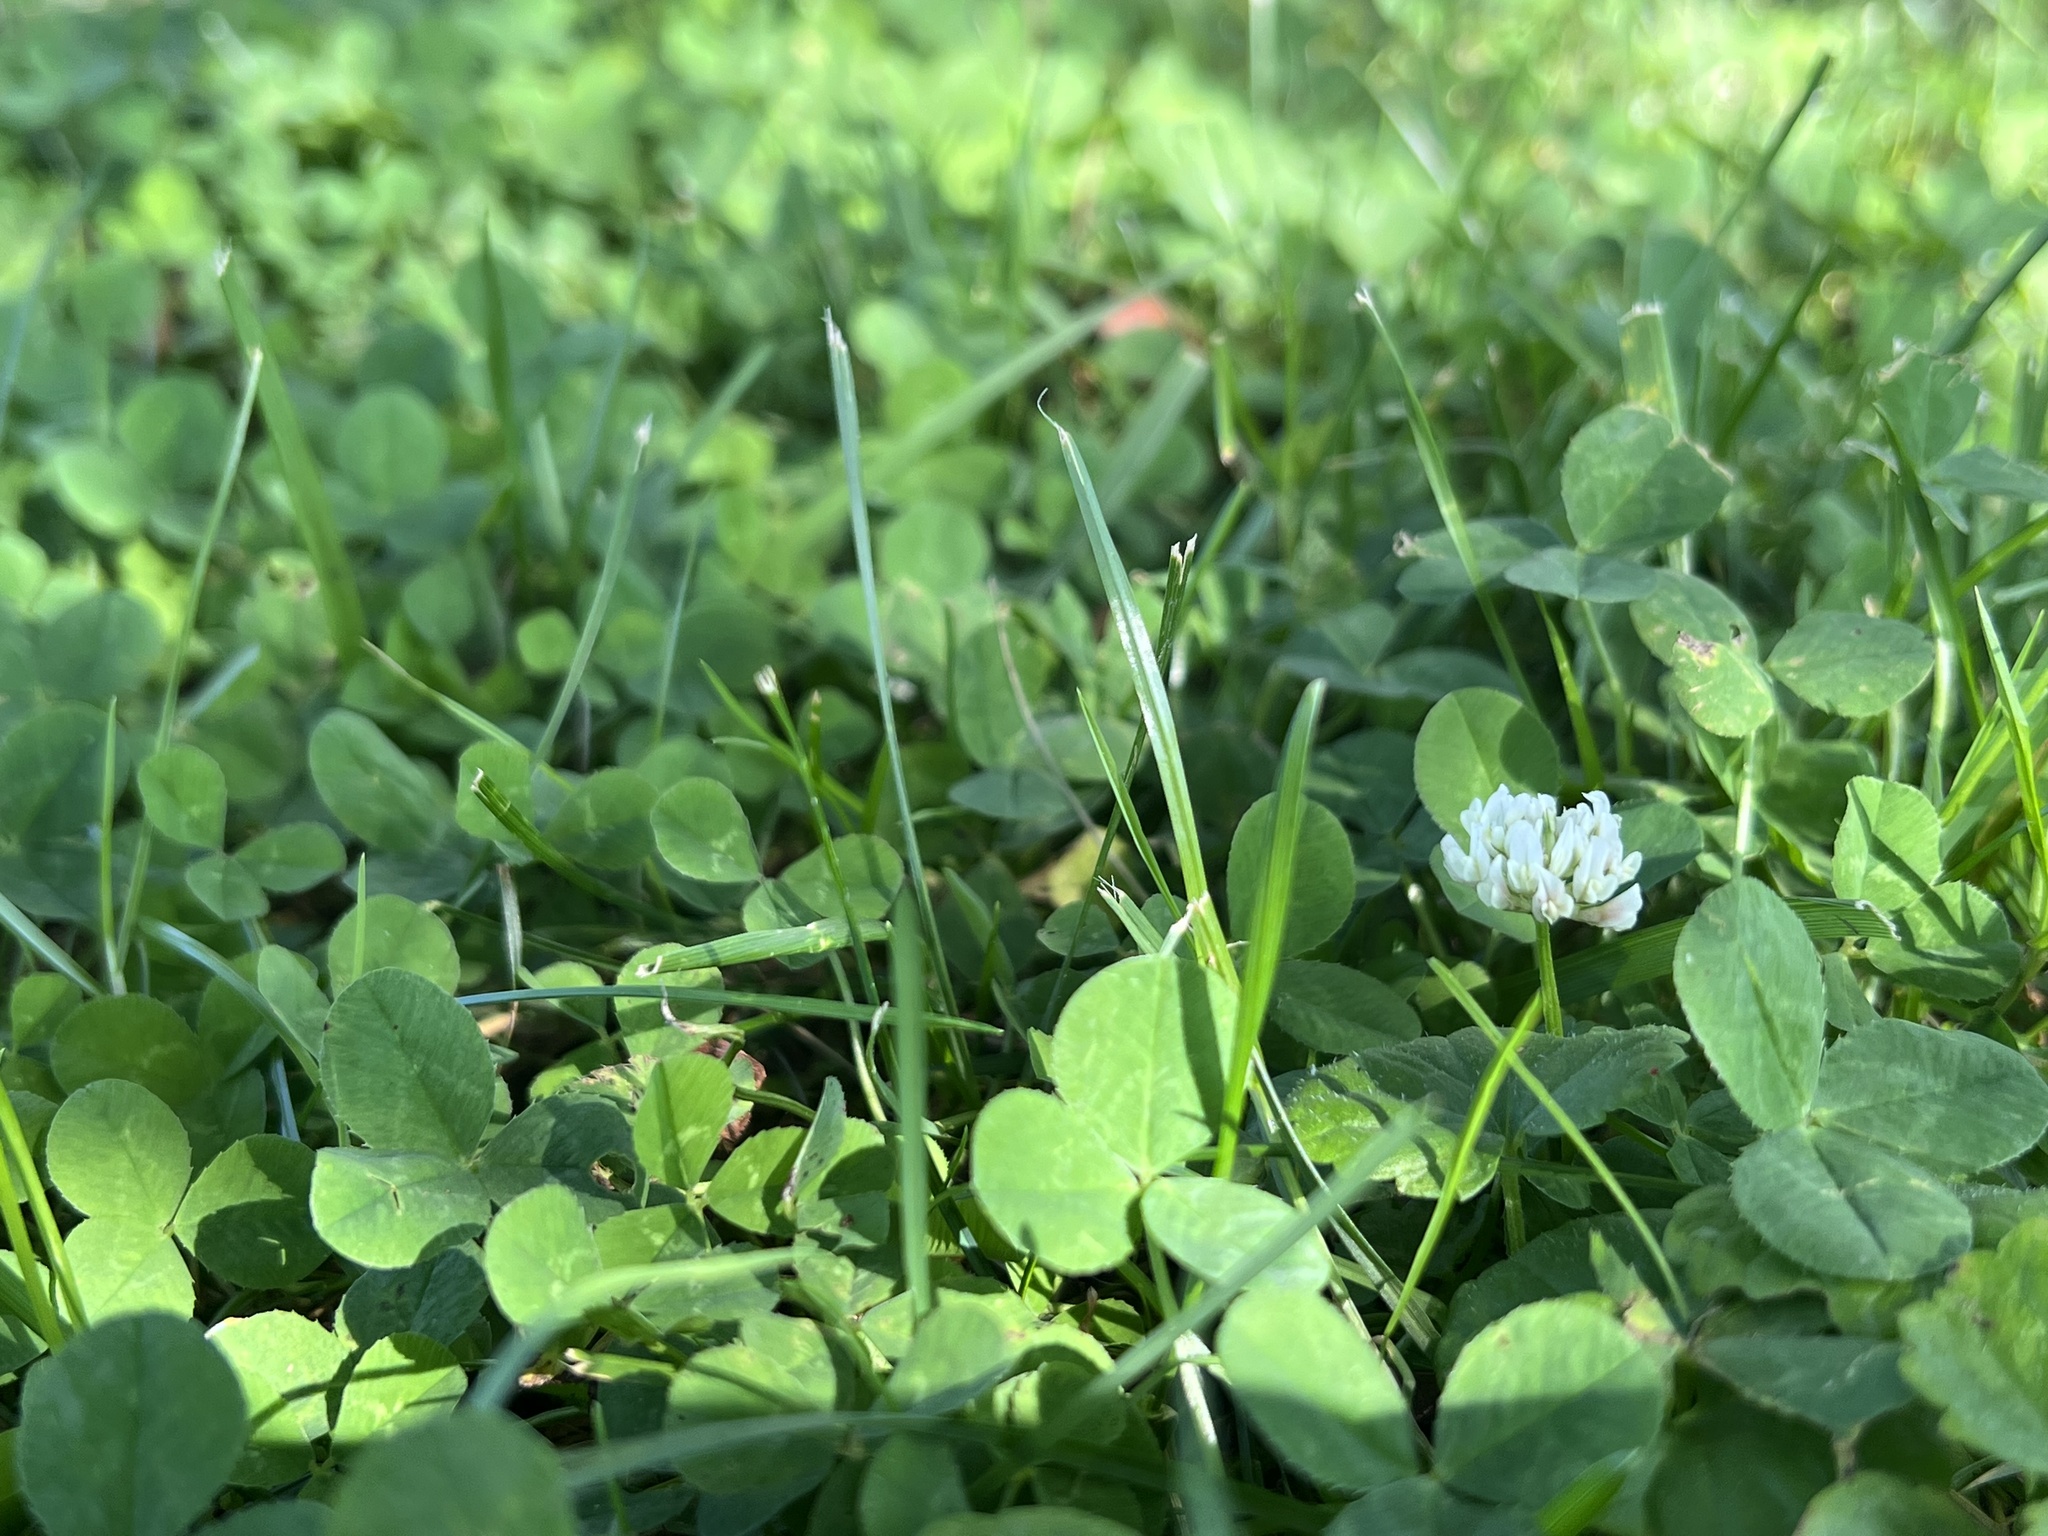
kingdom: Plantae
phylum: Tracheophyta
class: Magnoliopsida
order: Fabales
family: Fabaceae
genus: Trifolium
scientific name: Trifolium repens
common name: White clover
